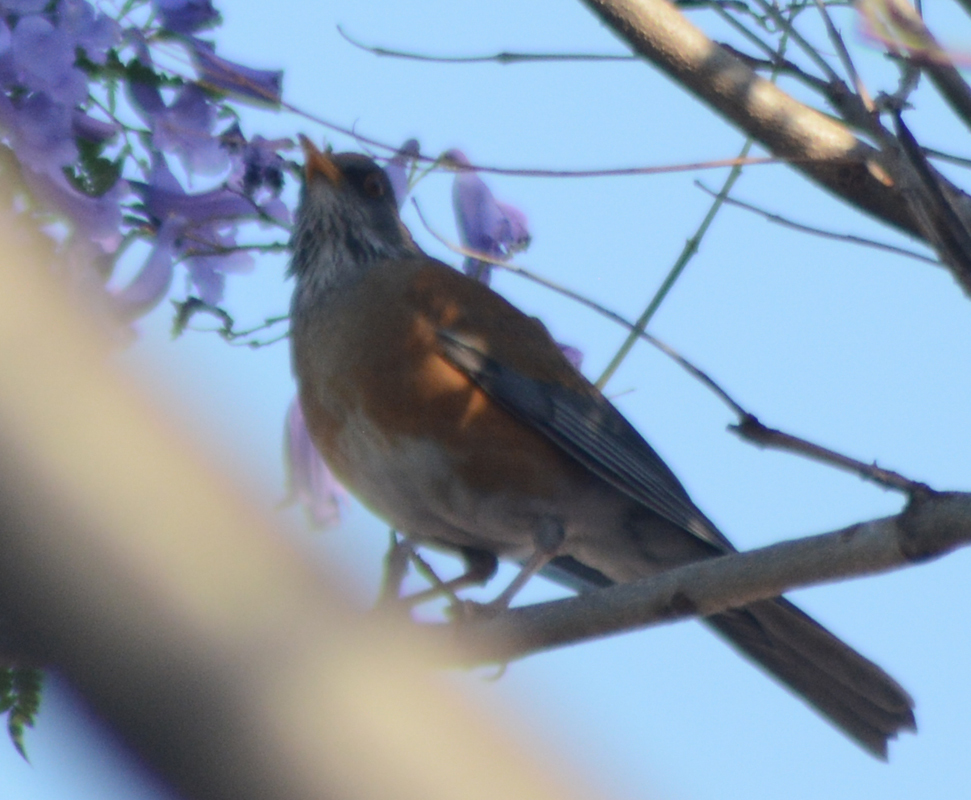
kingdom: Animalia
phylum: Chordata
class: Aves
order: Passeriformes
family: Turdidae
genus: Turdus
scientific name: Turdus rufopalliatus
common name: Rufous-backed robin
